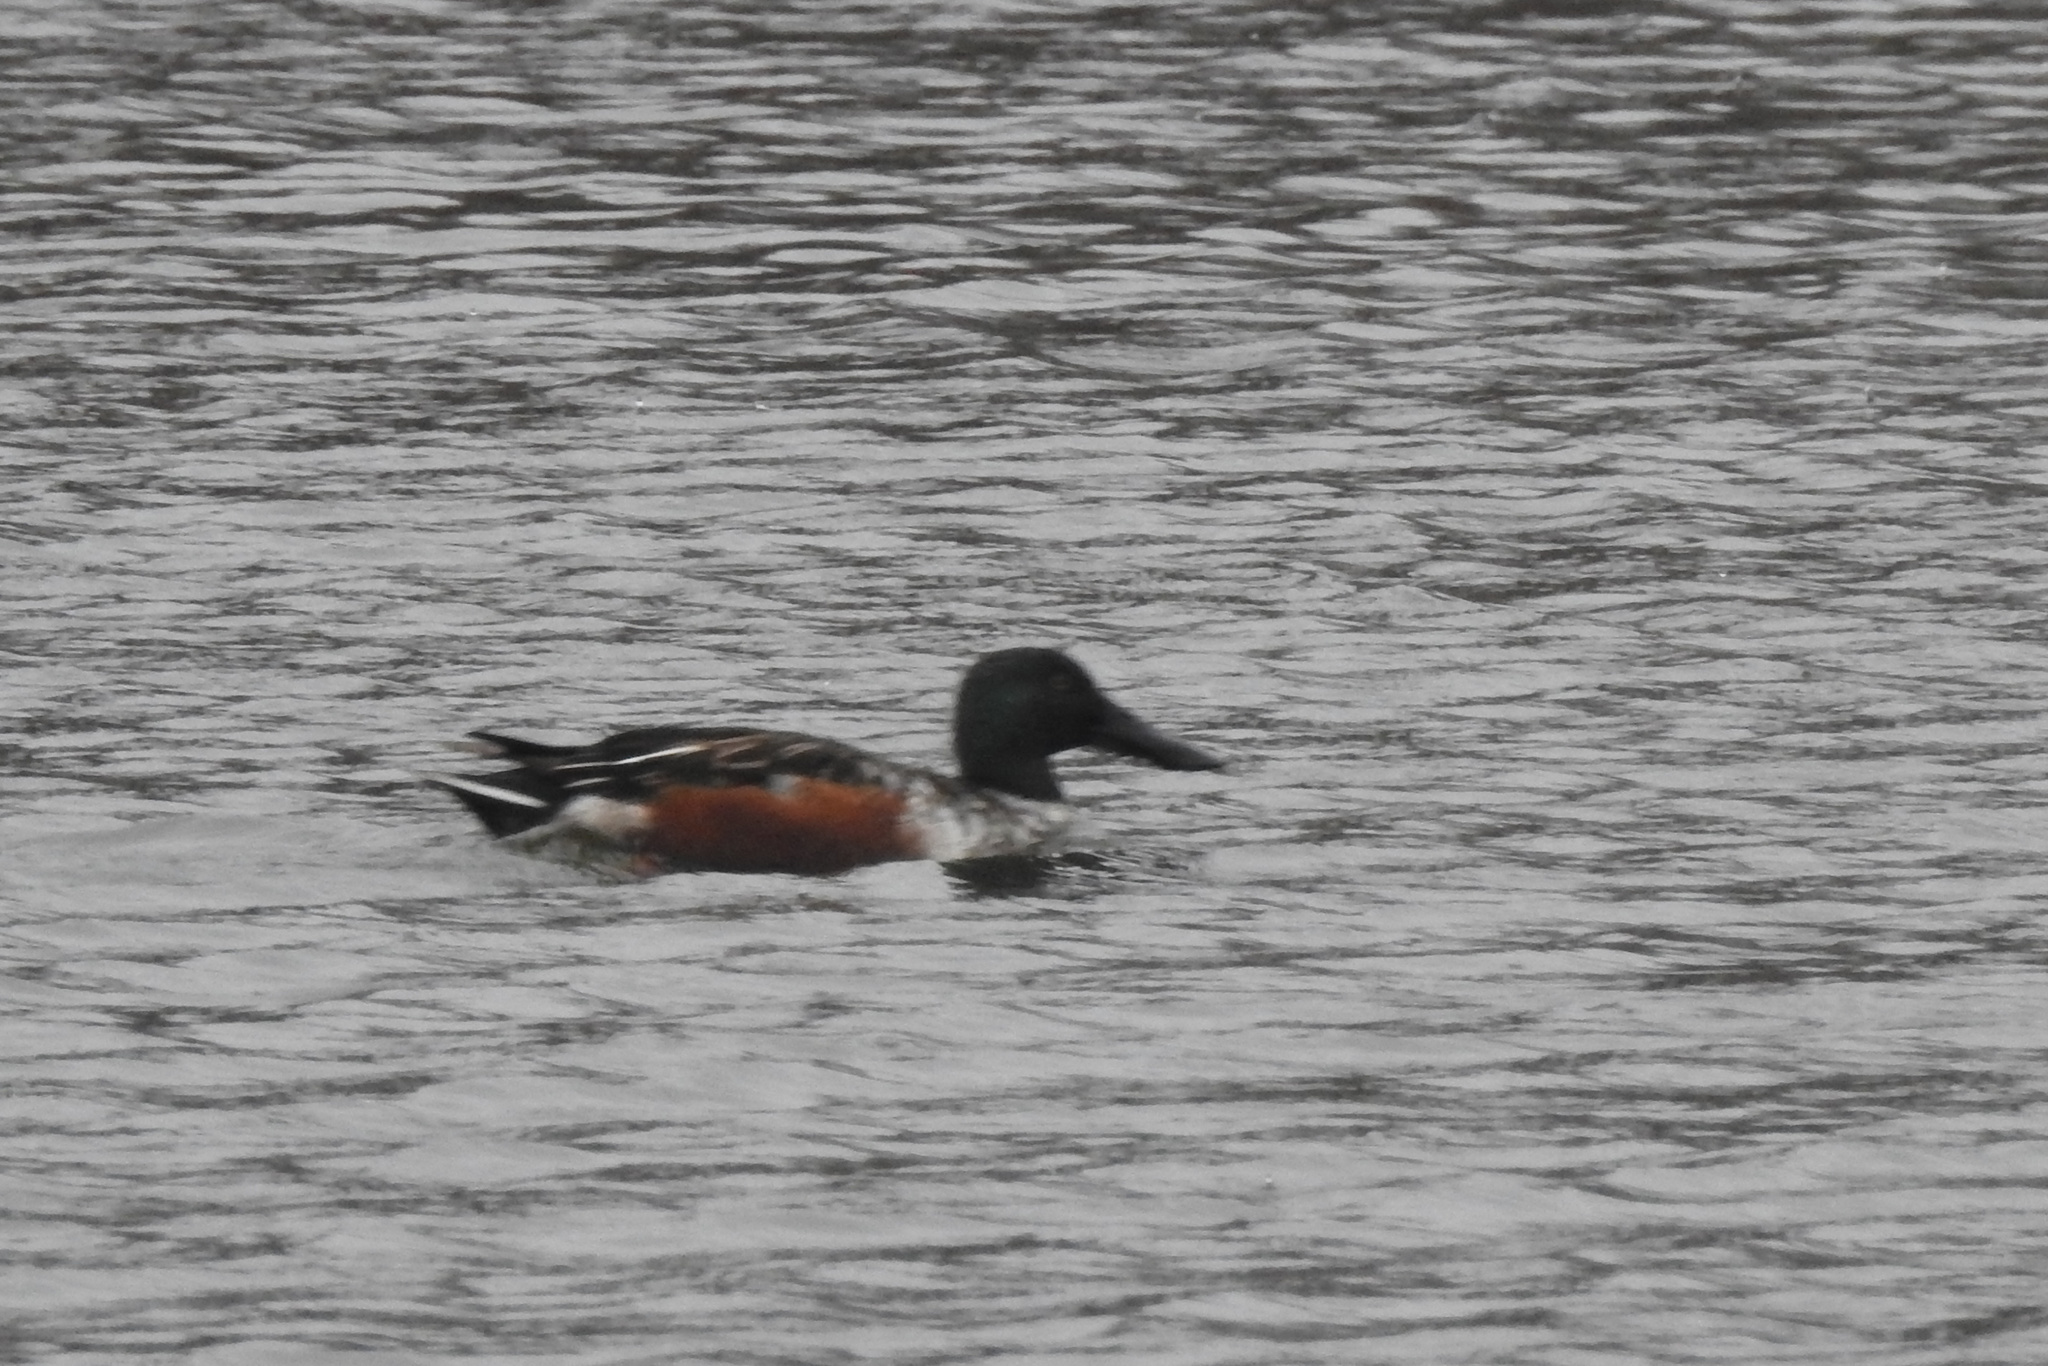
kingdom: Animalia
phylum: Chordata
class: Aves
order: Anseriformes
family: Anatidae
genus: Spatula
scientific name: Spatula clypeata
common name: Northern shoveler
